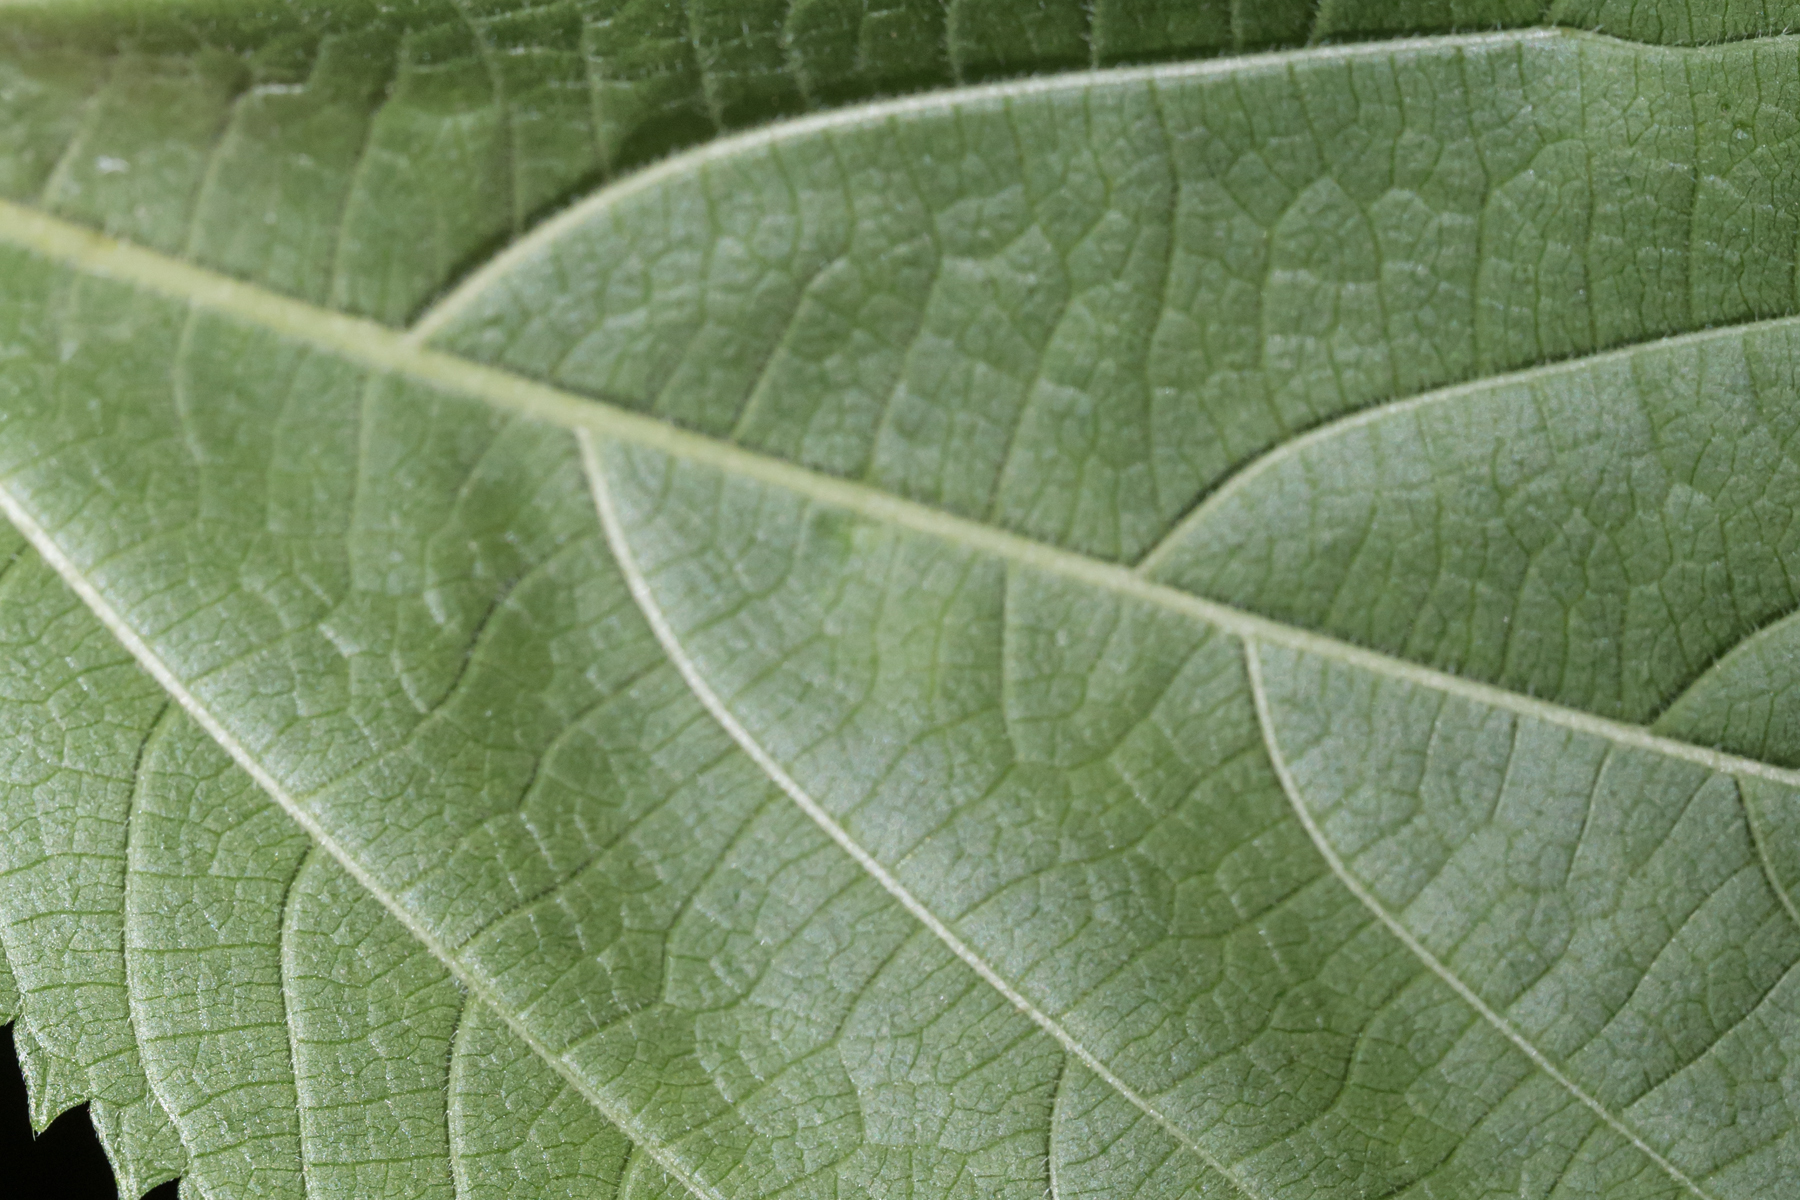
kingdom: Animalia
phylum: Arthropoda
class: Insecta
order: Diptera
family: Cecidomyiidae
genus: Dasineura
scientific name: Dasineura investita
